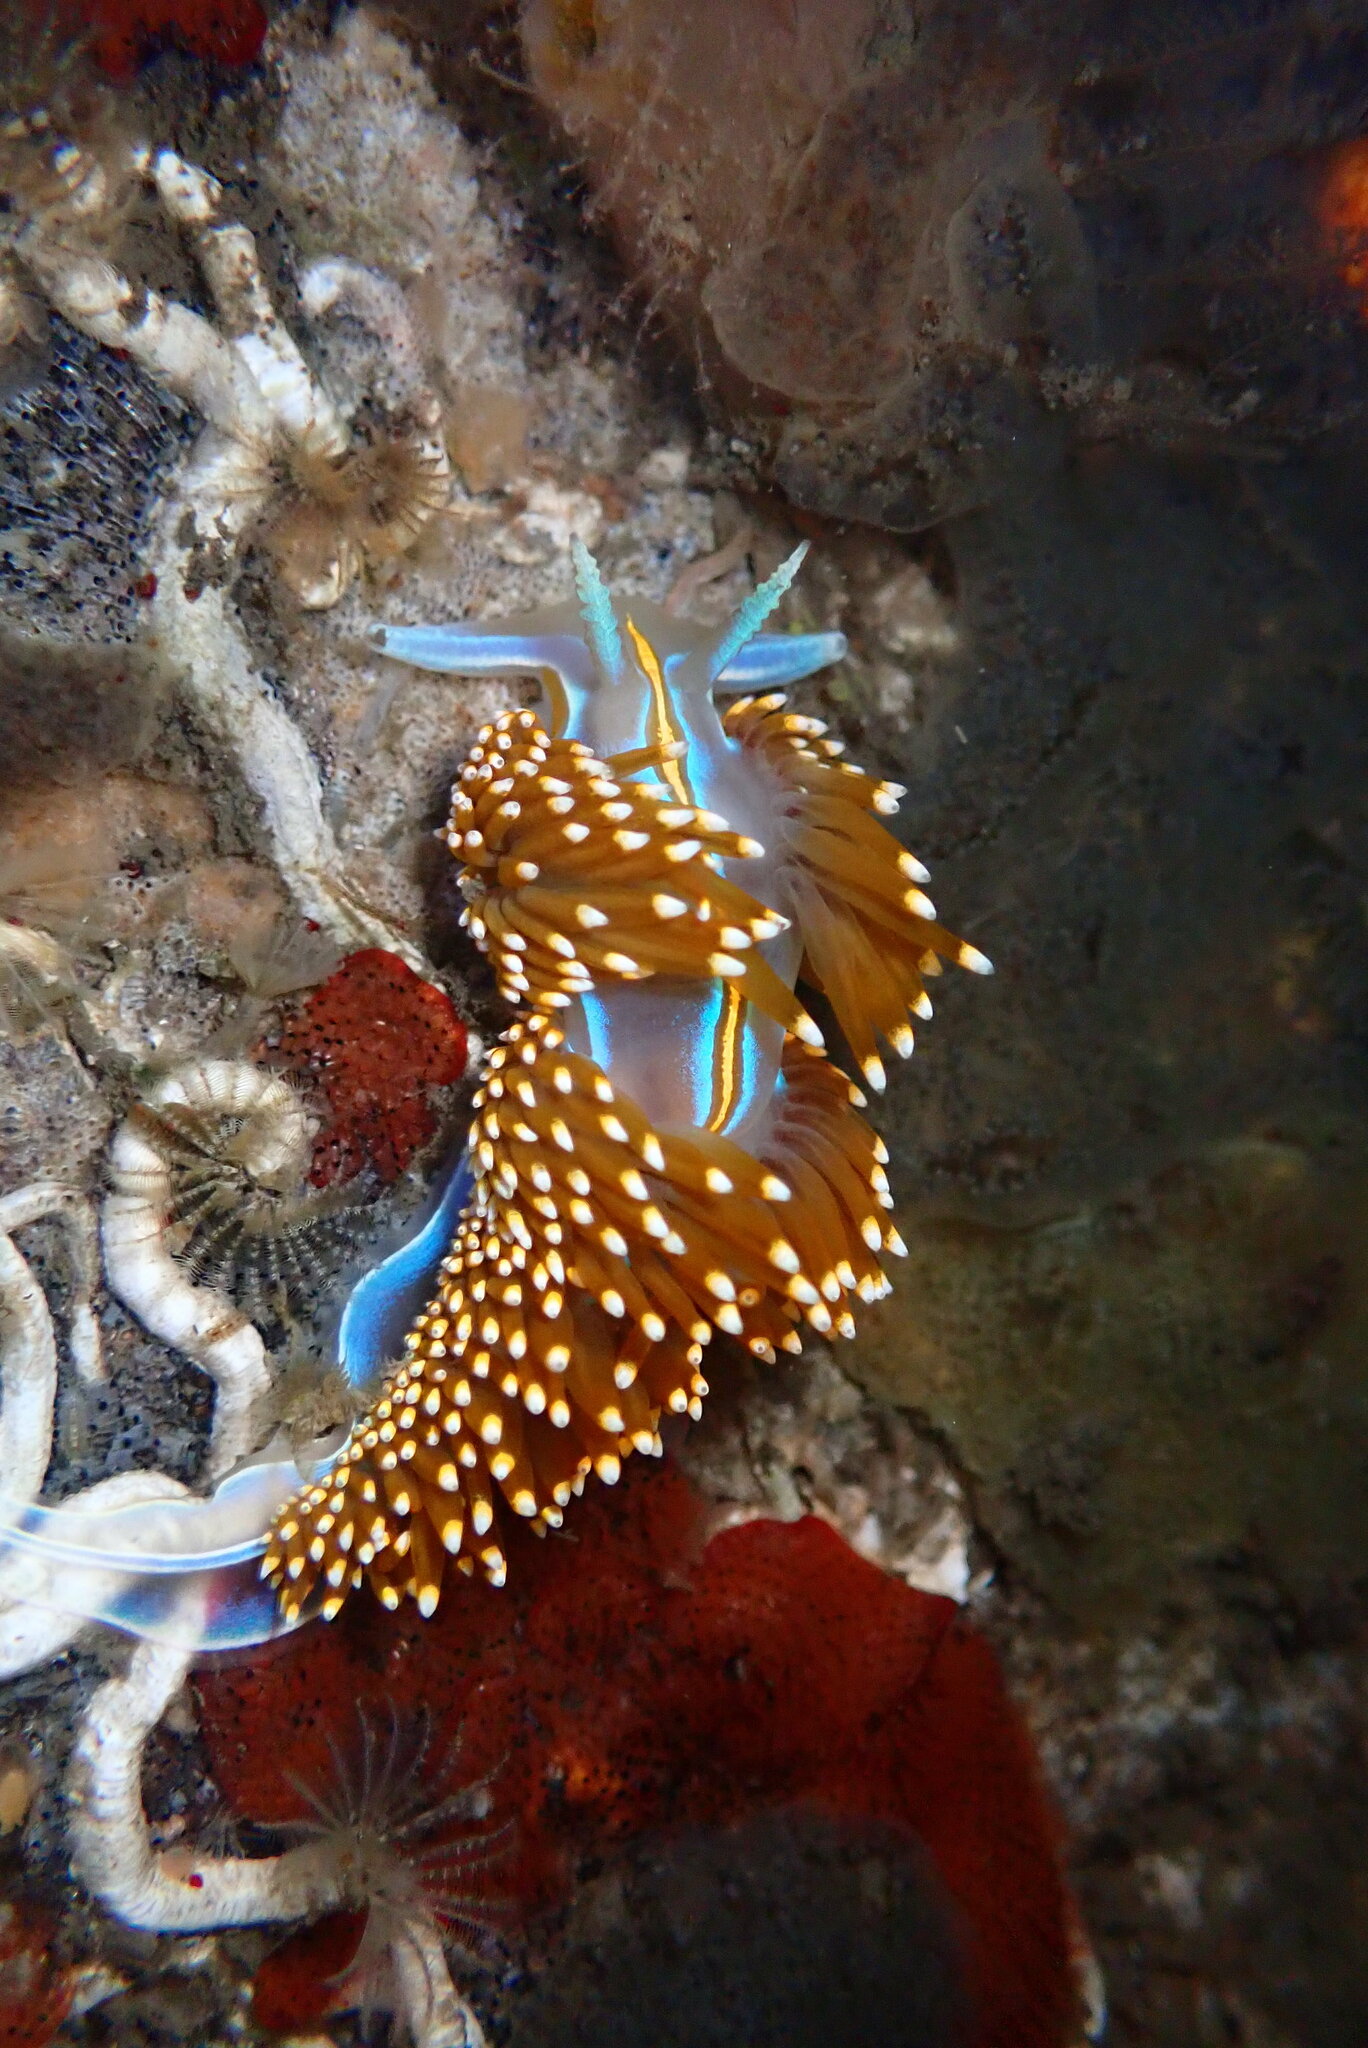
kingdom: Animalia
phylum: Mollusca
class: Gastropoda
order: Nudibranchia
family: Myrrhinidae
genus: Hermissenda
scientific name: Hermissenda opalescens
